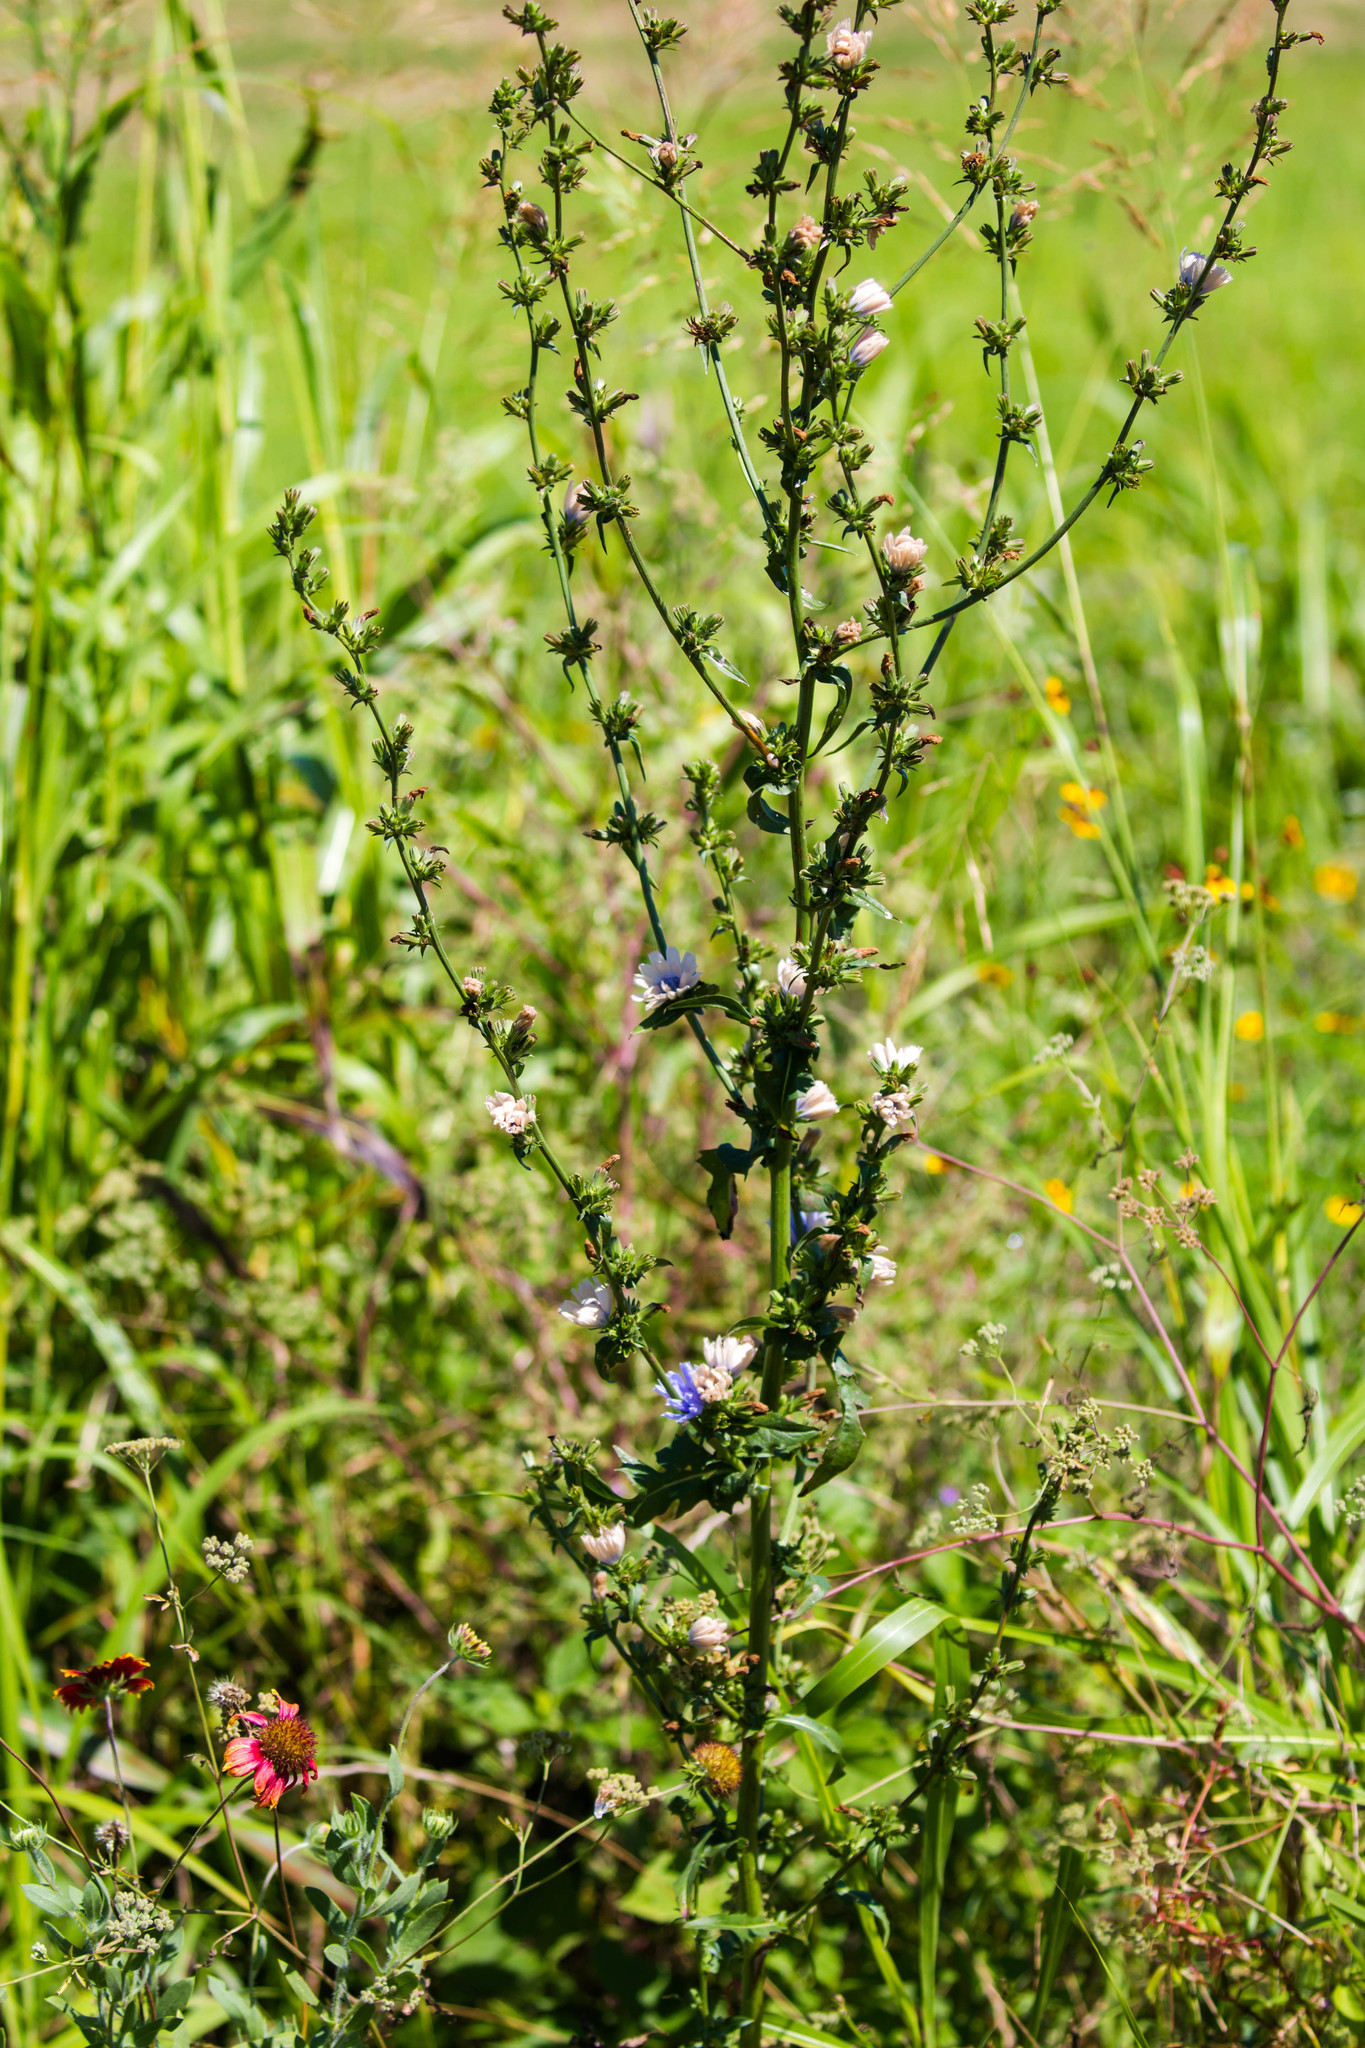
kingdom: Plantae
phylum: Tracheophyta
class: Magnoliopsida
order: Asterales
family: Asteraceae
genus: Cichorium
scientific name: Cichorium intybus
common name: Chicory
